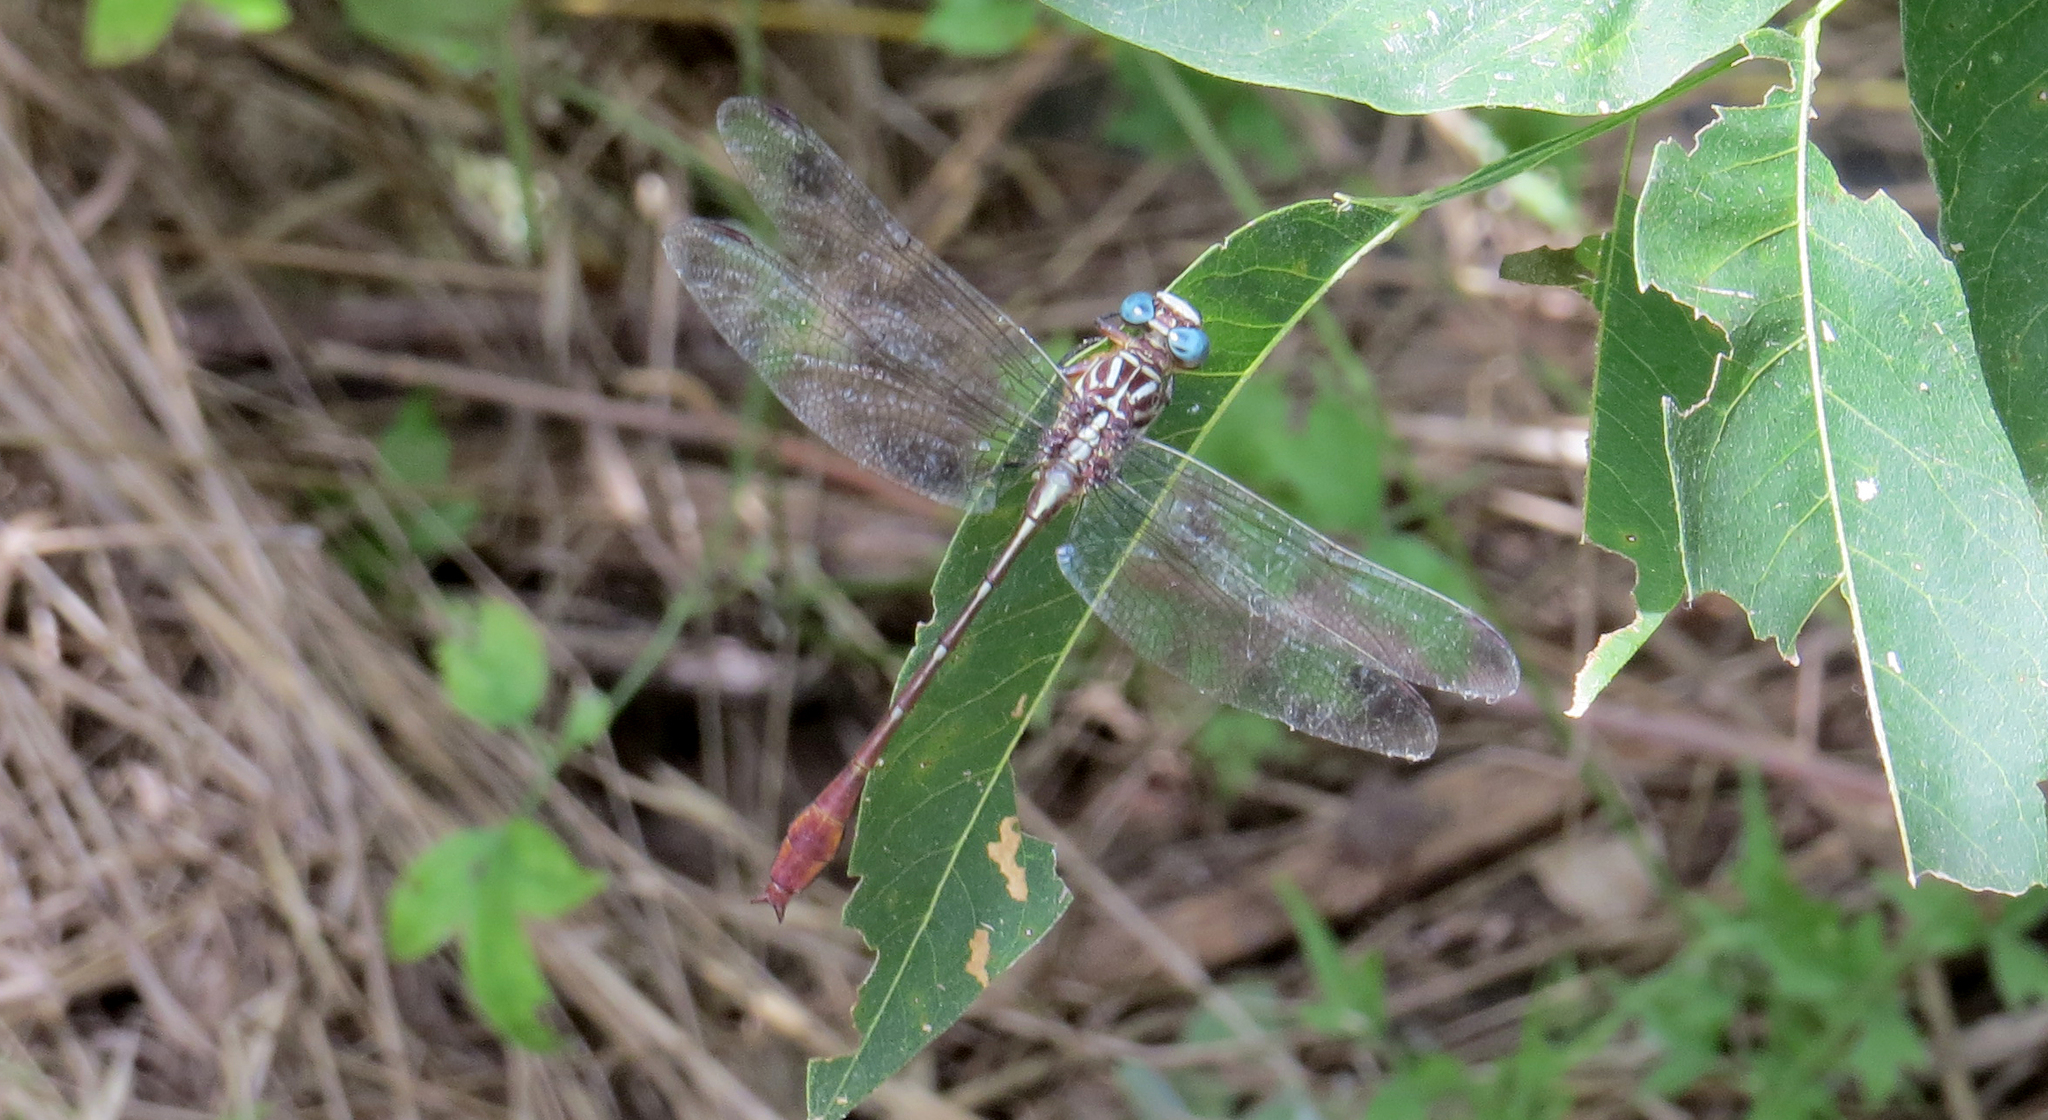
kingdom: Animalia
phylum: Arthropoda
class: Insecta
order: Odonata
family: Gomphidae
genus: Stylurus
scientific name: Stylurus plagiatus
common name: Russet-tipped clubtail
